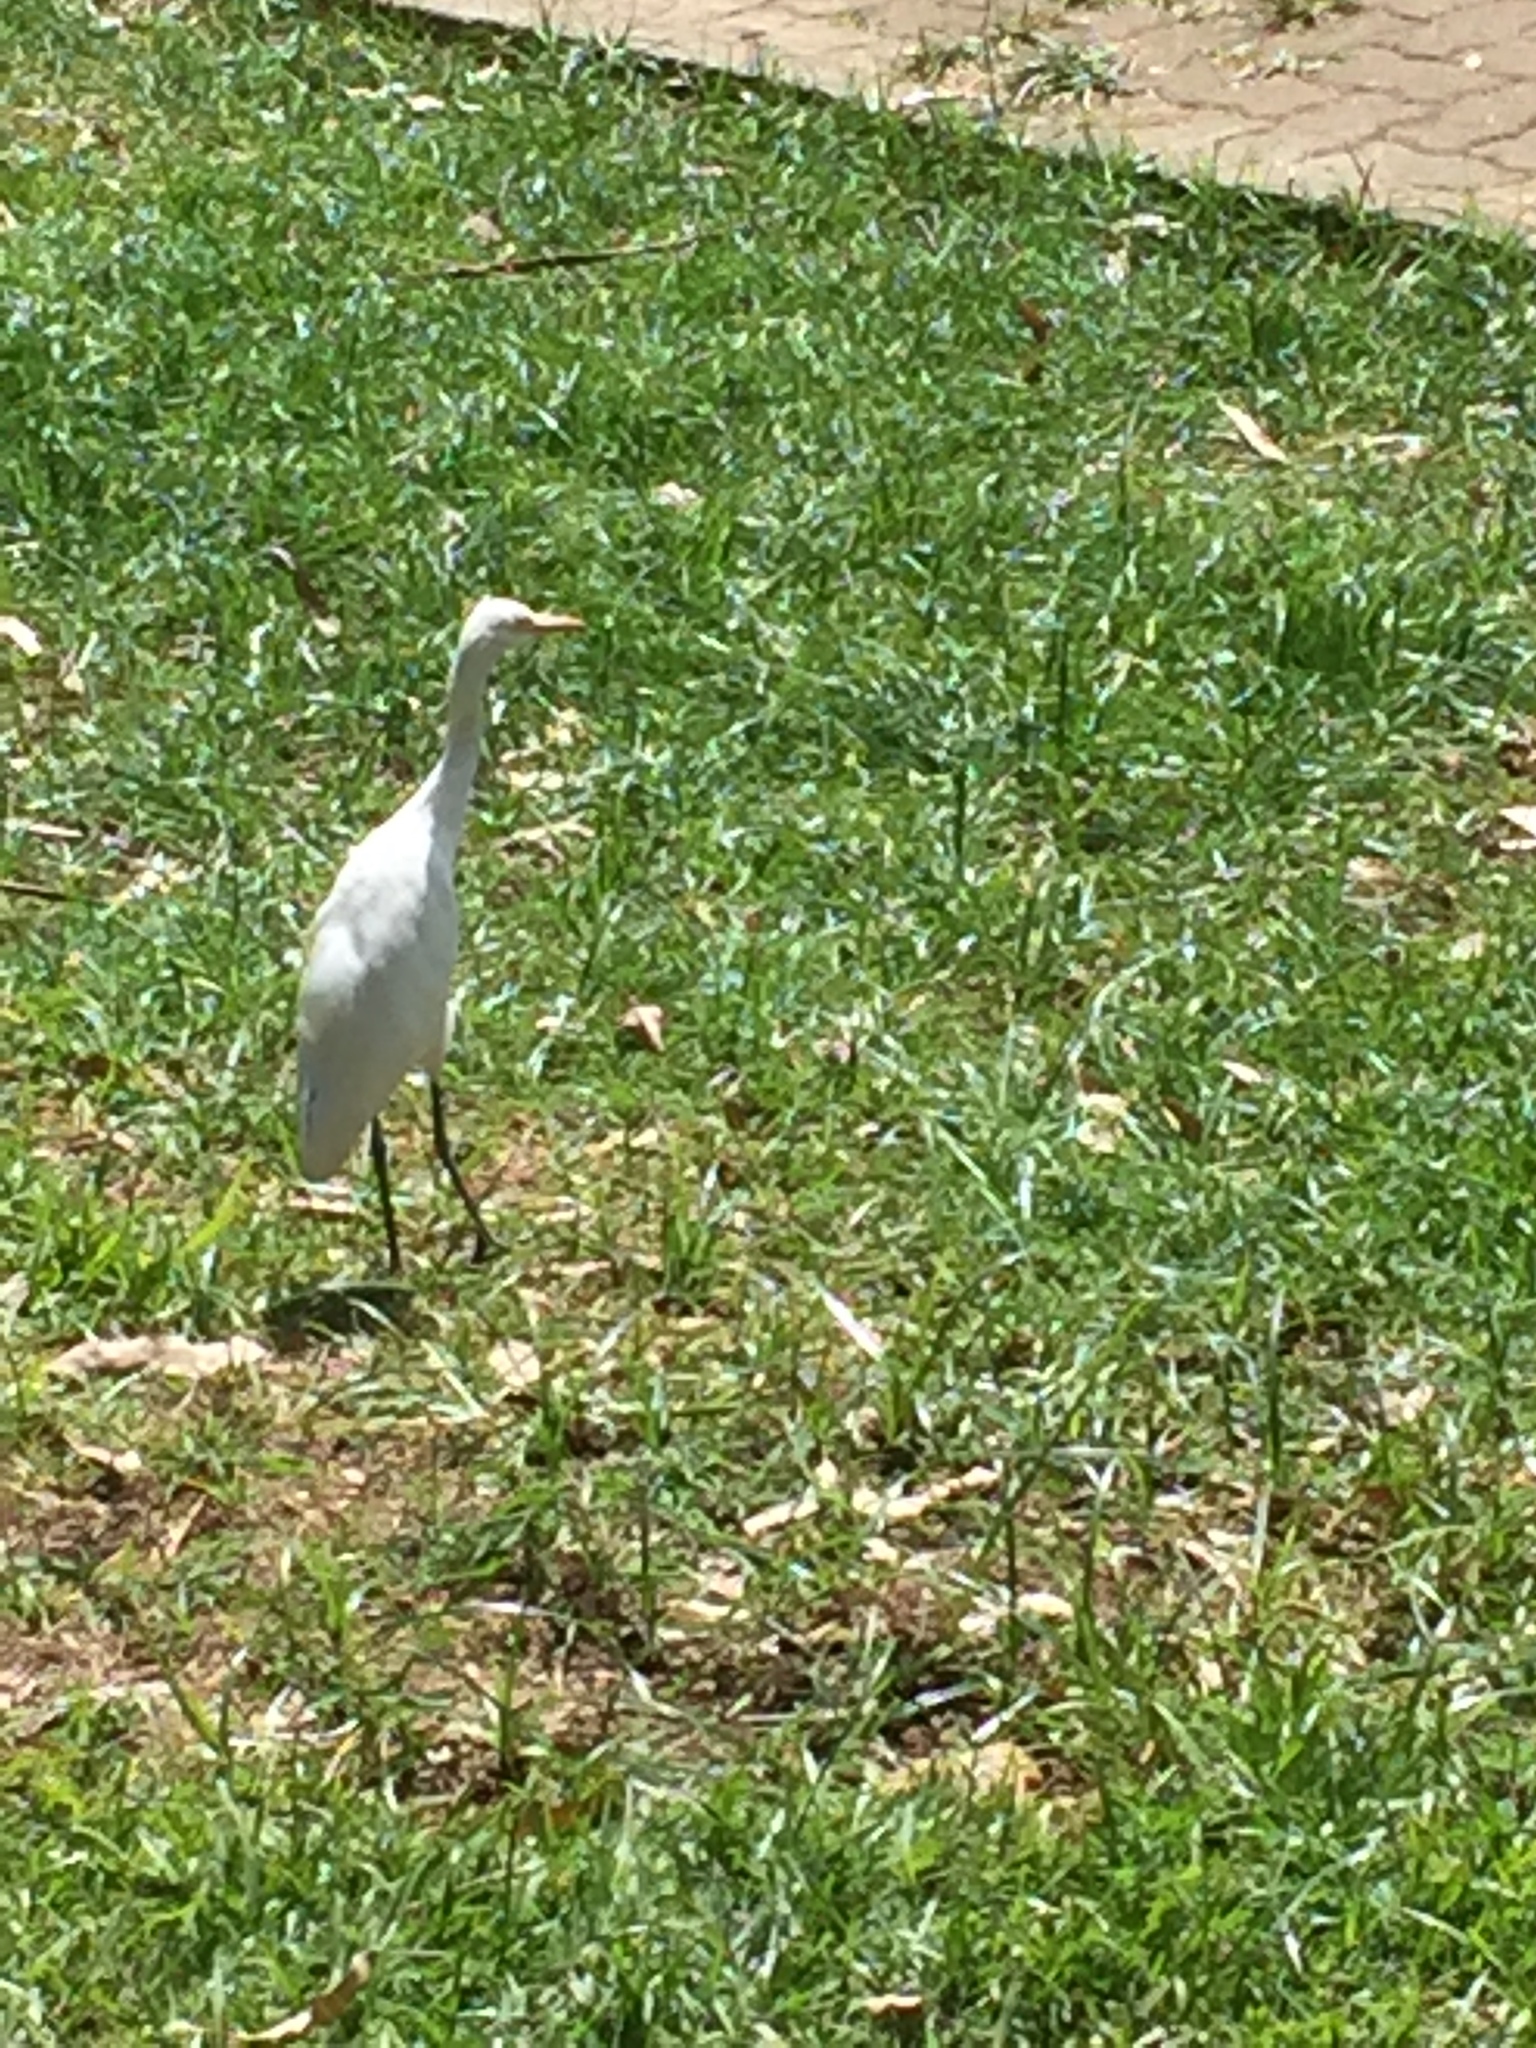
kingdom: Animalia
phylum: Chordata
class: Aves
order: Pelecaniformes
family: Ardeidae
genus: Bubulcus
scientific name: Bubulcus coromandus
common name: Eastern cattle egret
